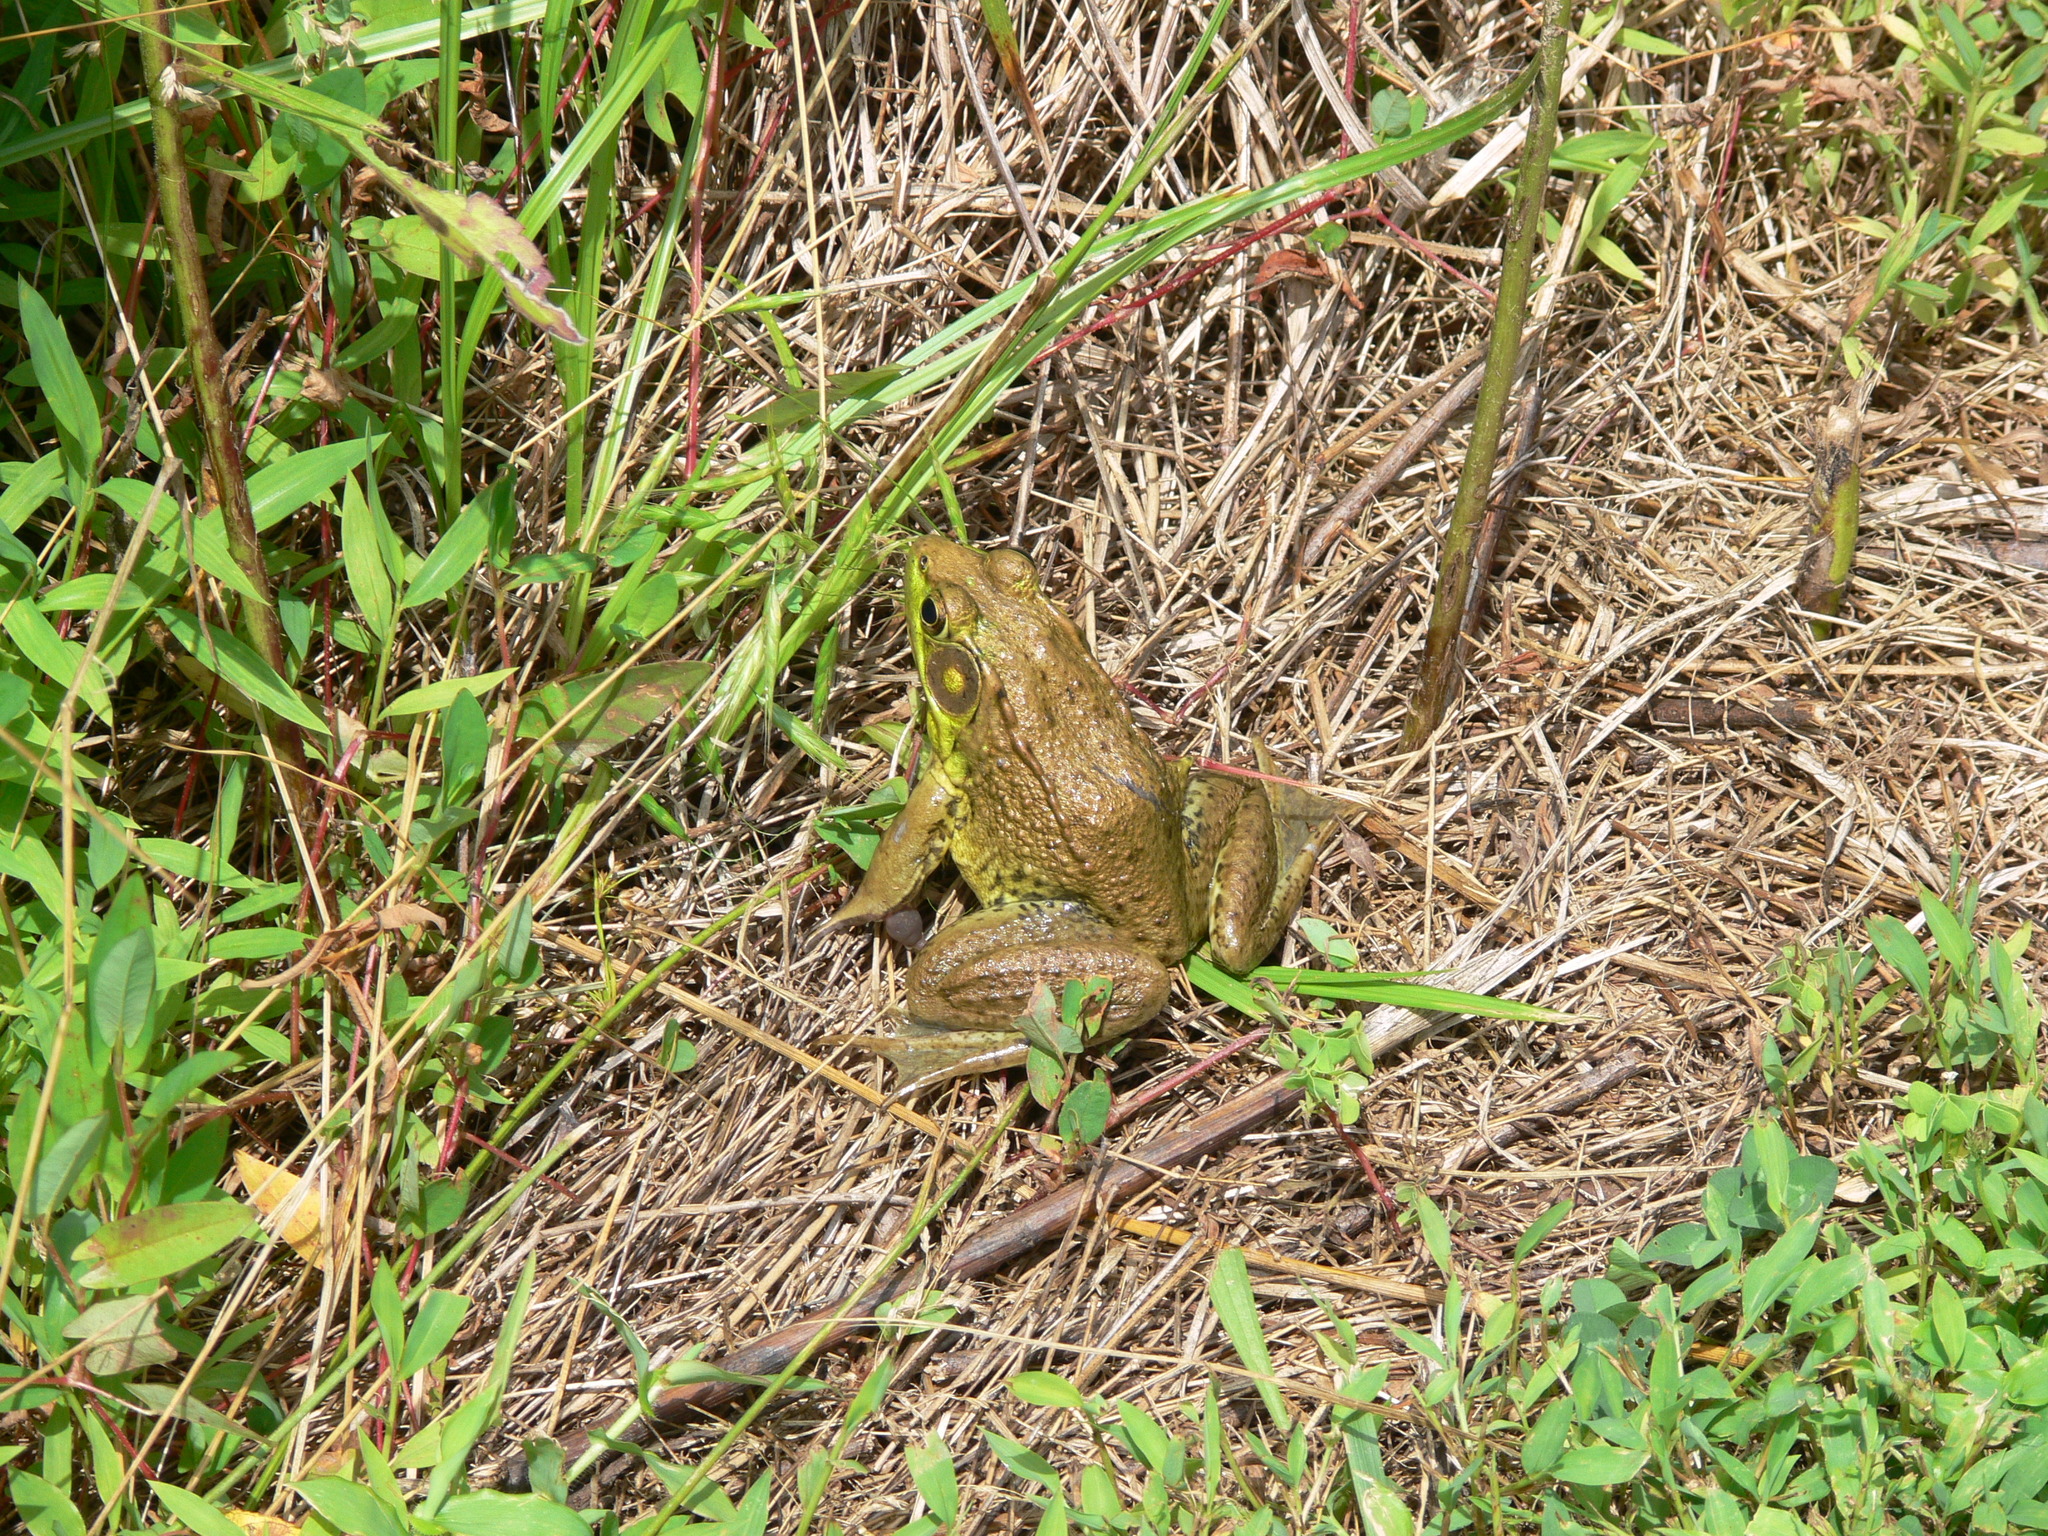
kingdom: Animalia
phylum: Chordata
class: Amphibia
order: Anura
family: Ranidae
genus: Lithobates
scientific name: Lithobates clamitans
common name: Green frog
